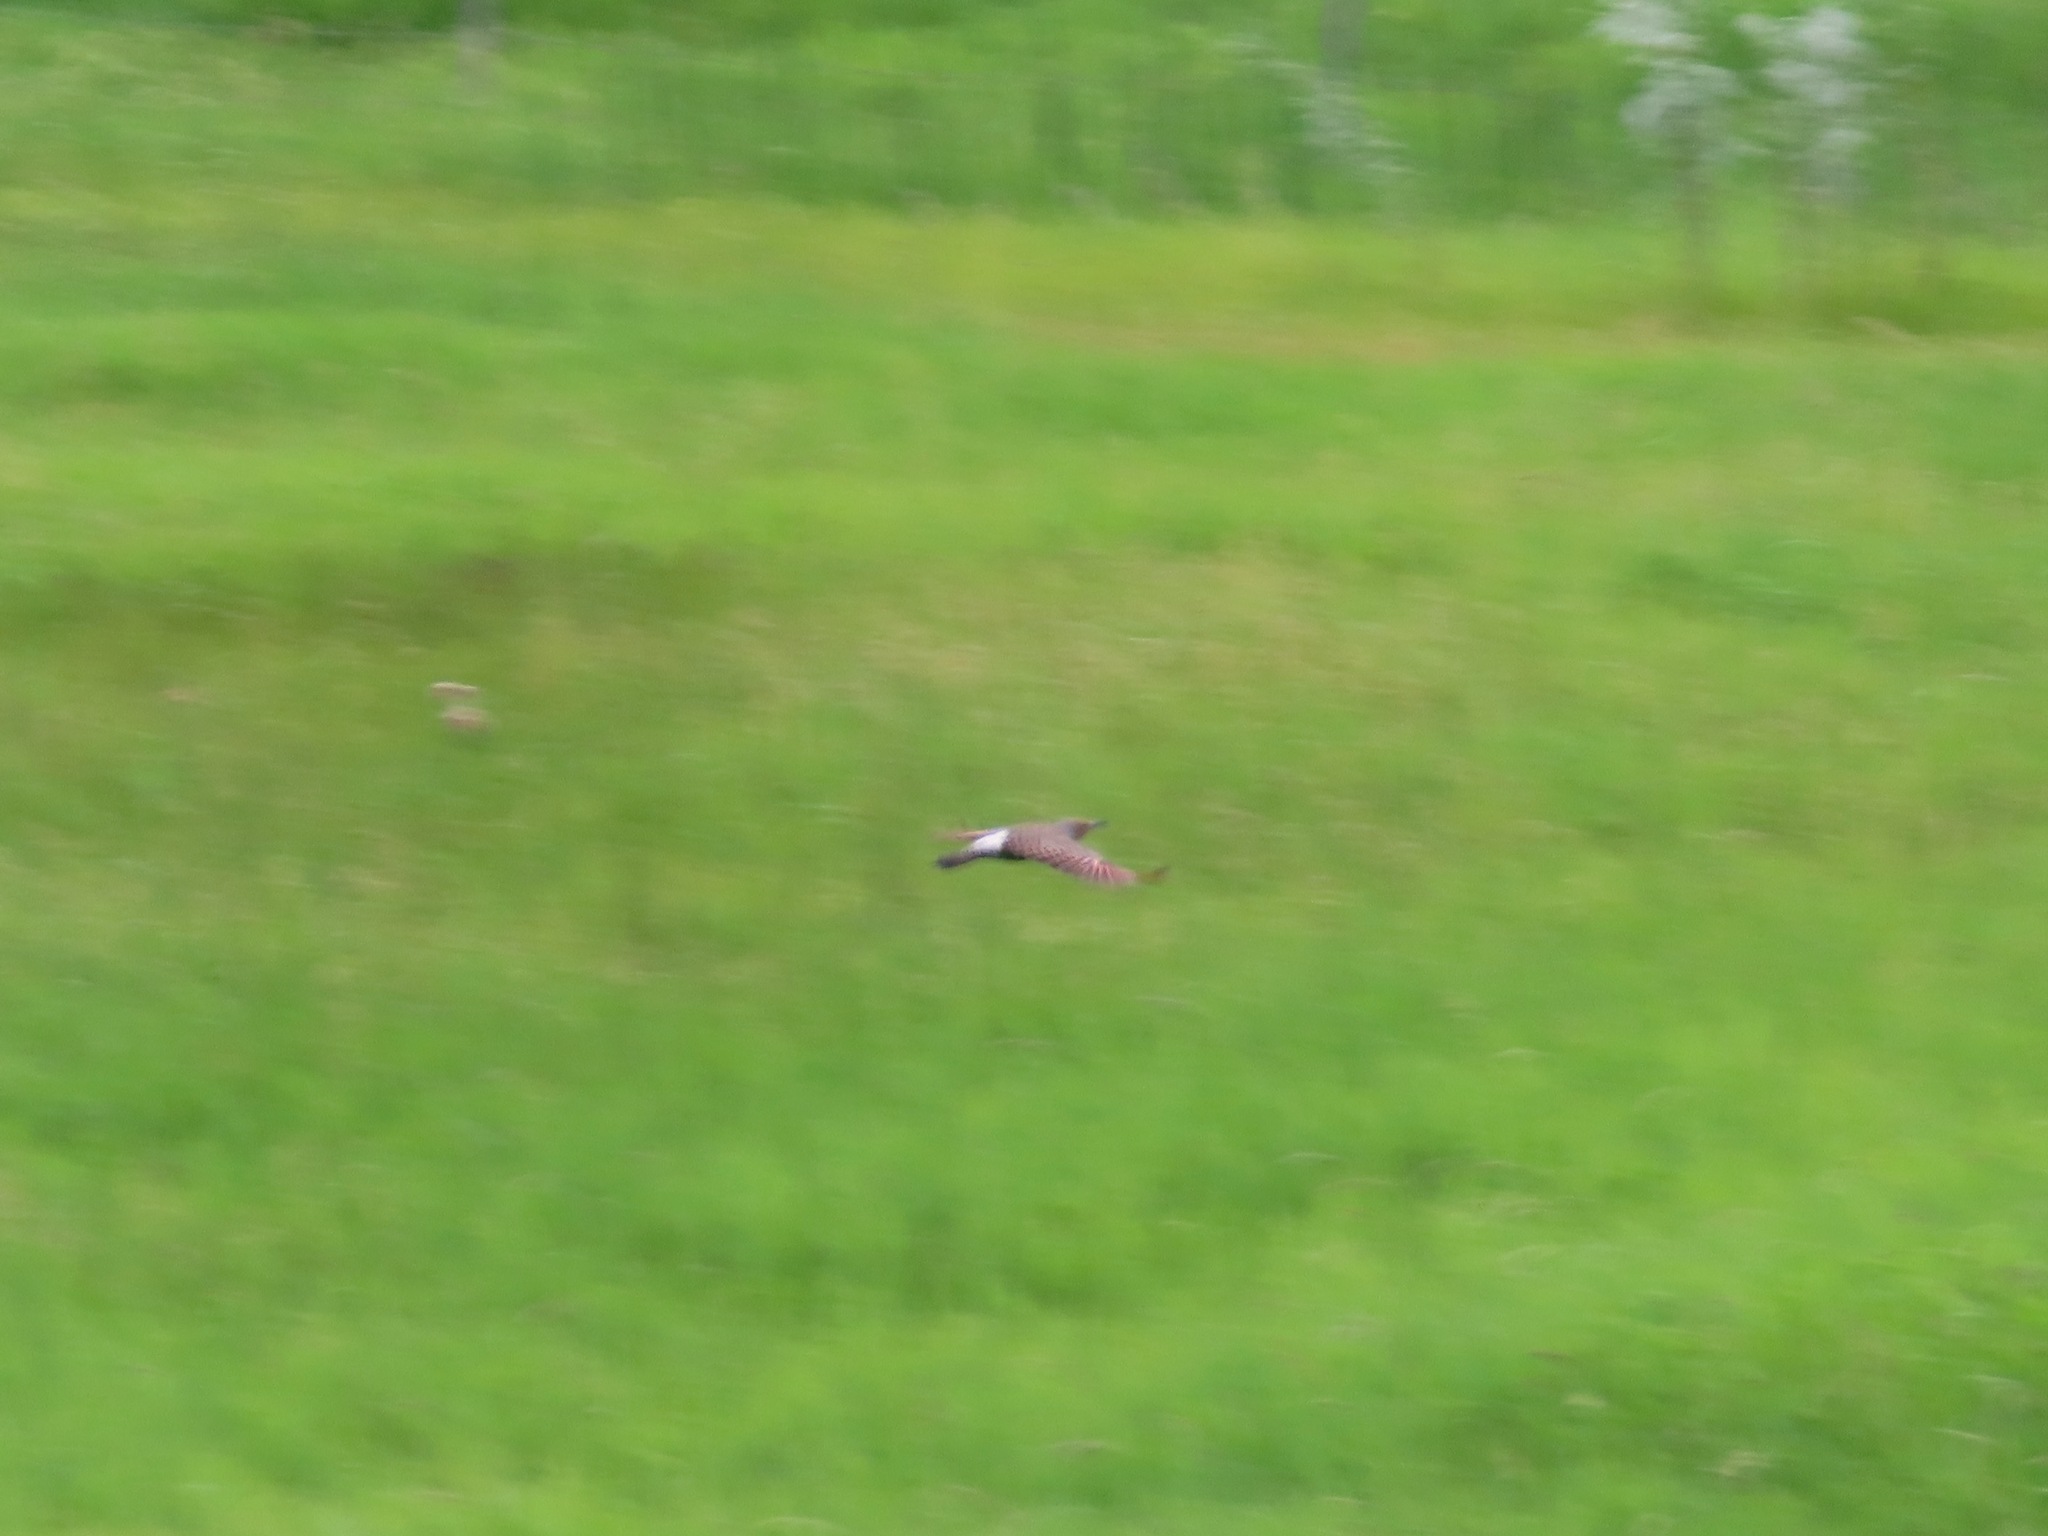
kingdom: Animalia
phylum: Chordata
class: Aves
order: Piciformes
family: Picidae
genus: Colaptes
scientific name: Colaptes auratus
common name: Northern flicker
